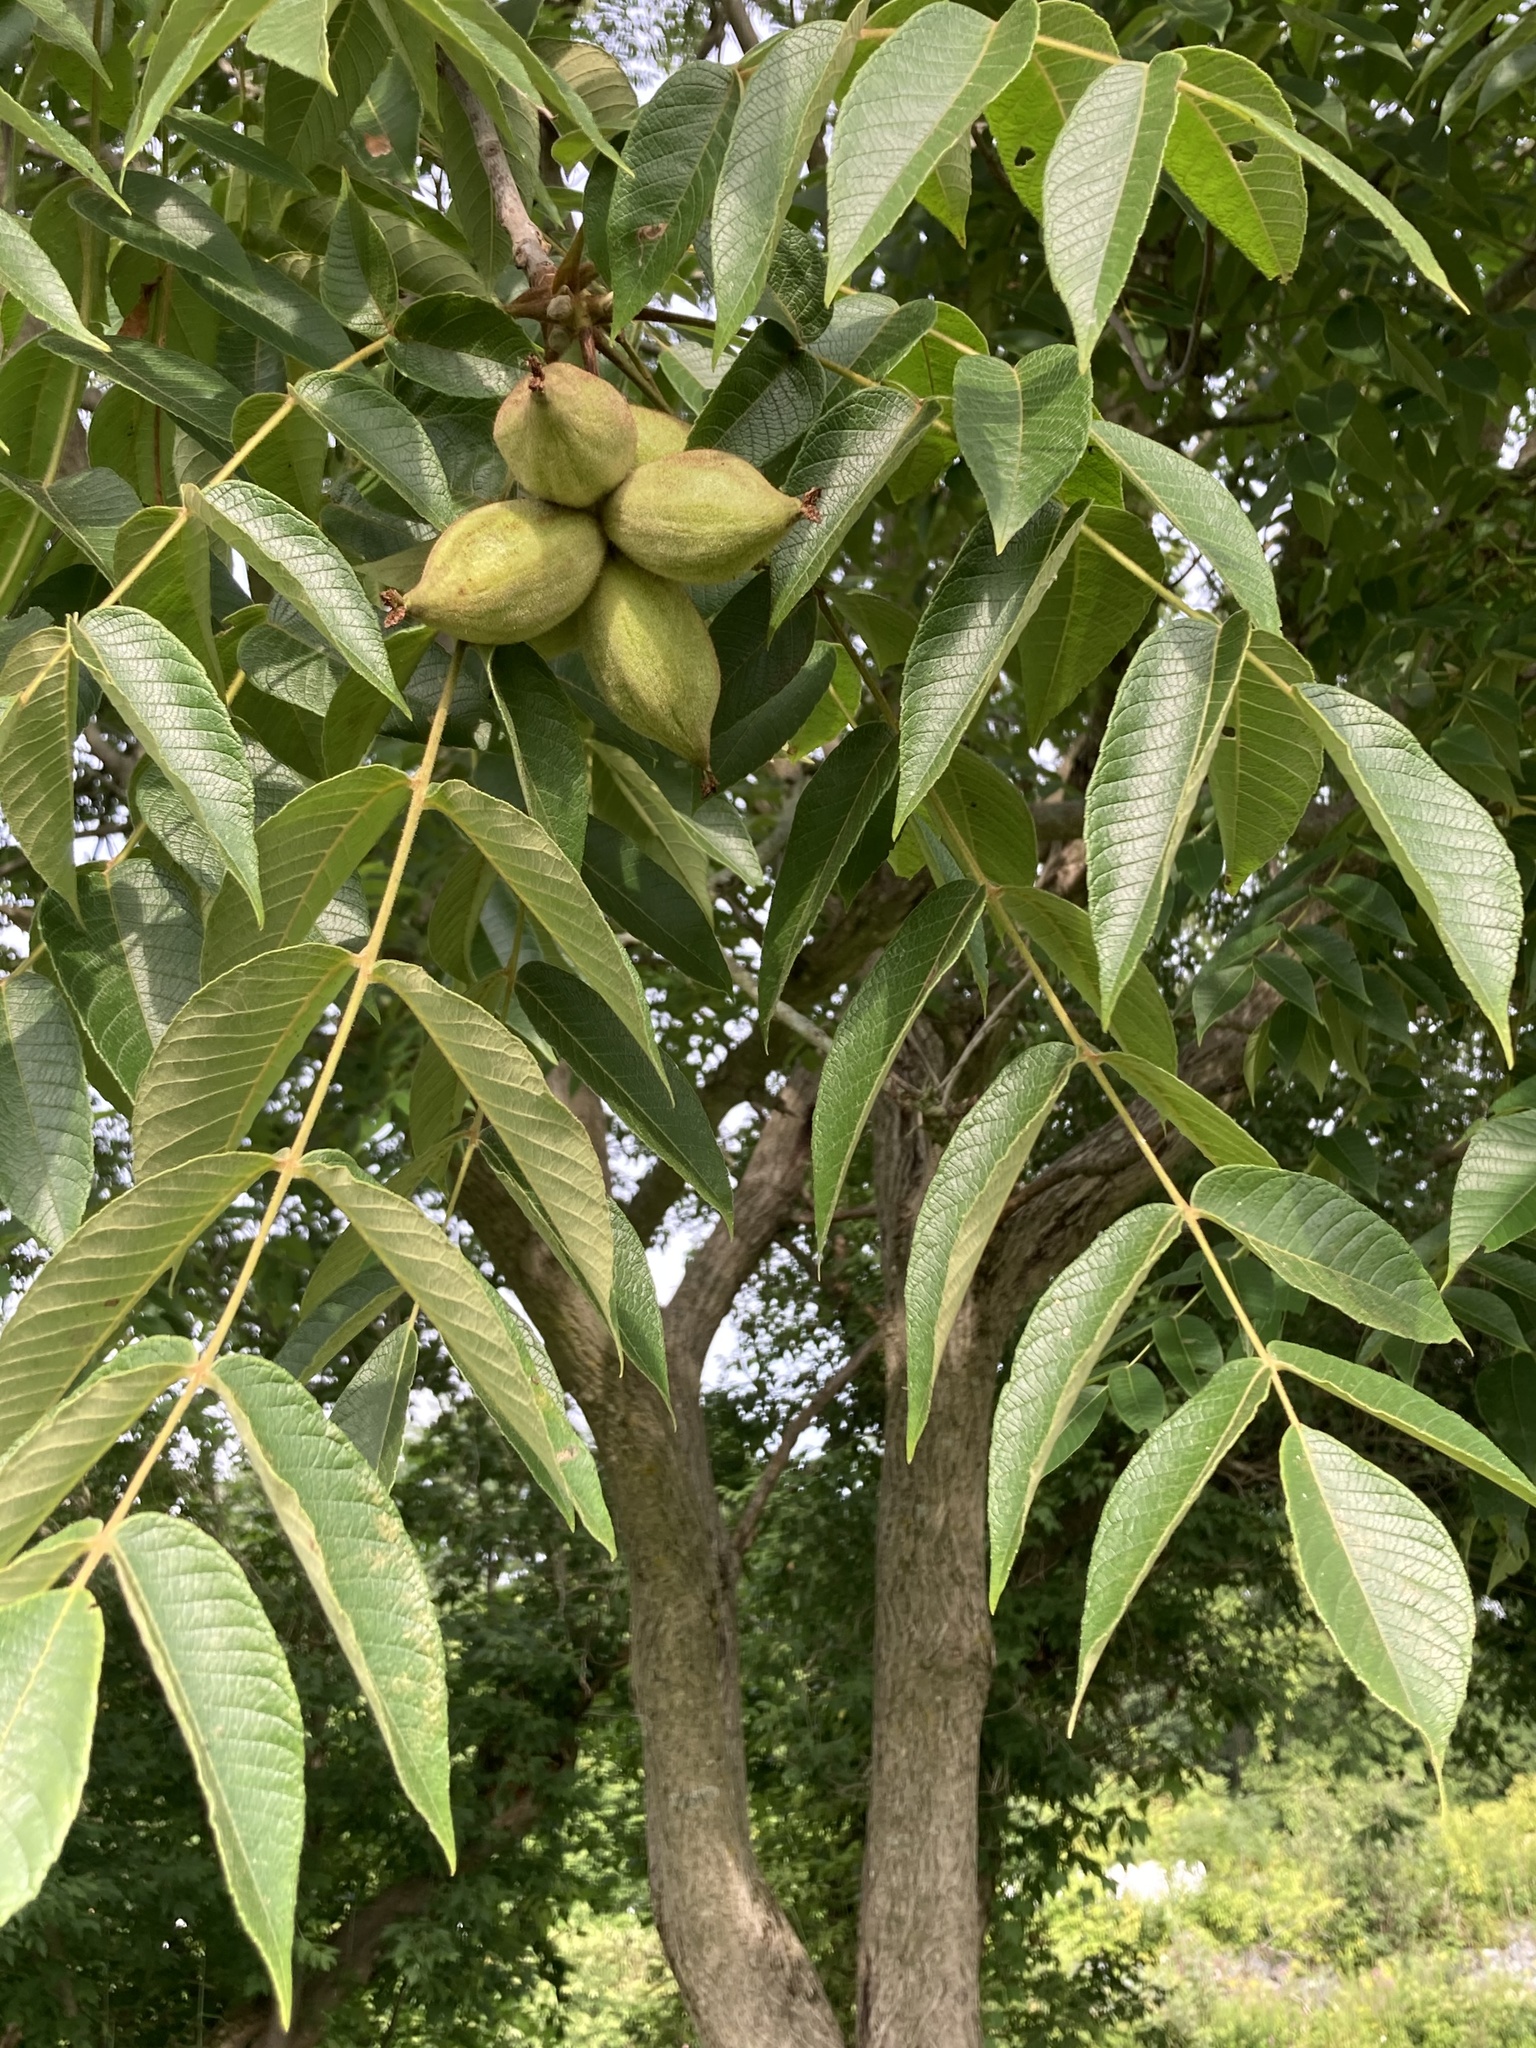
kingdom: Plantae
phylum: Tracheophyta
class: Magnoliopsida
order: Fagales
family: Juglandaceae
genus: Juglans
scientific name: Juglans cinerea
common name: Butternut
